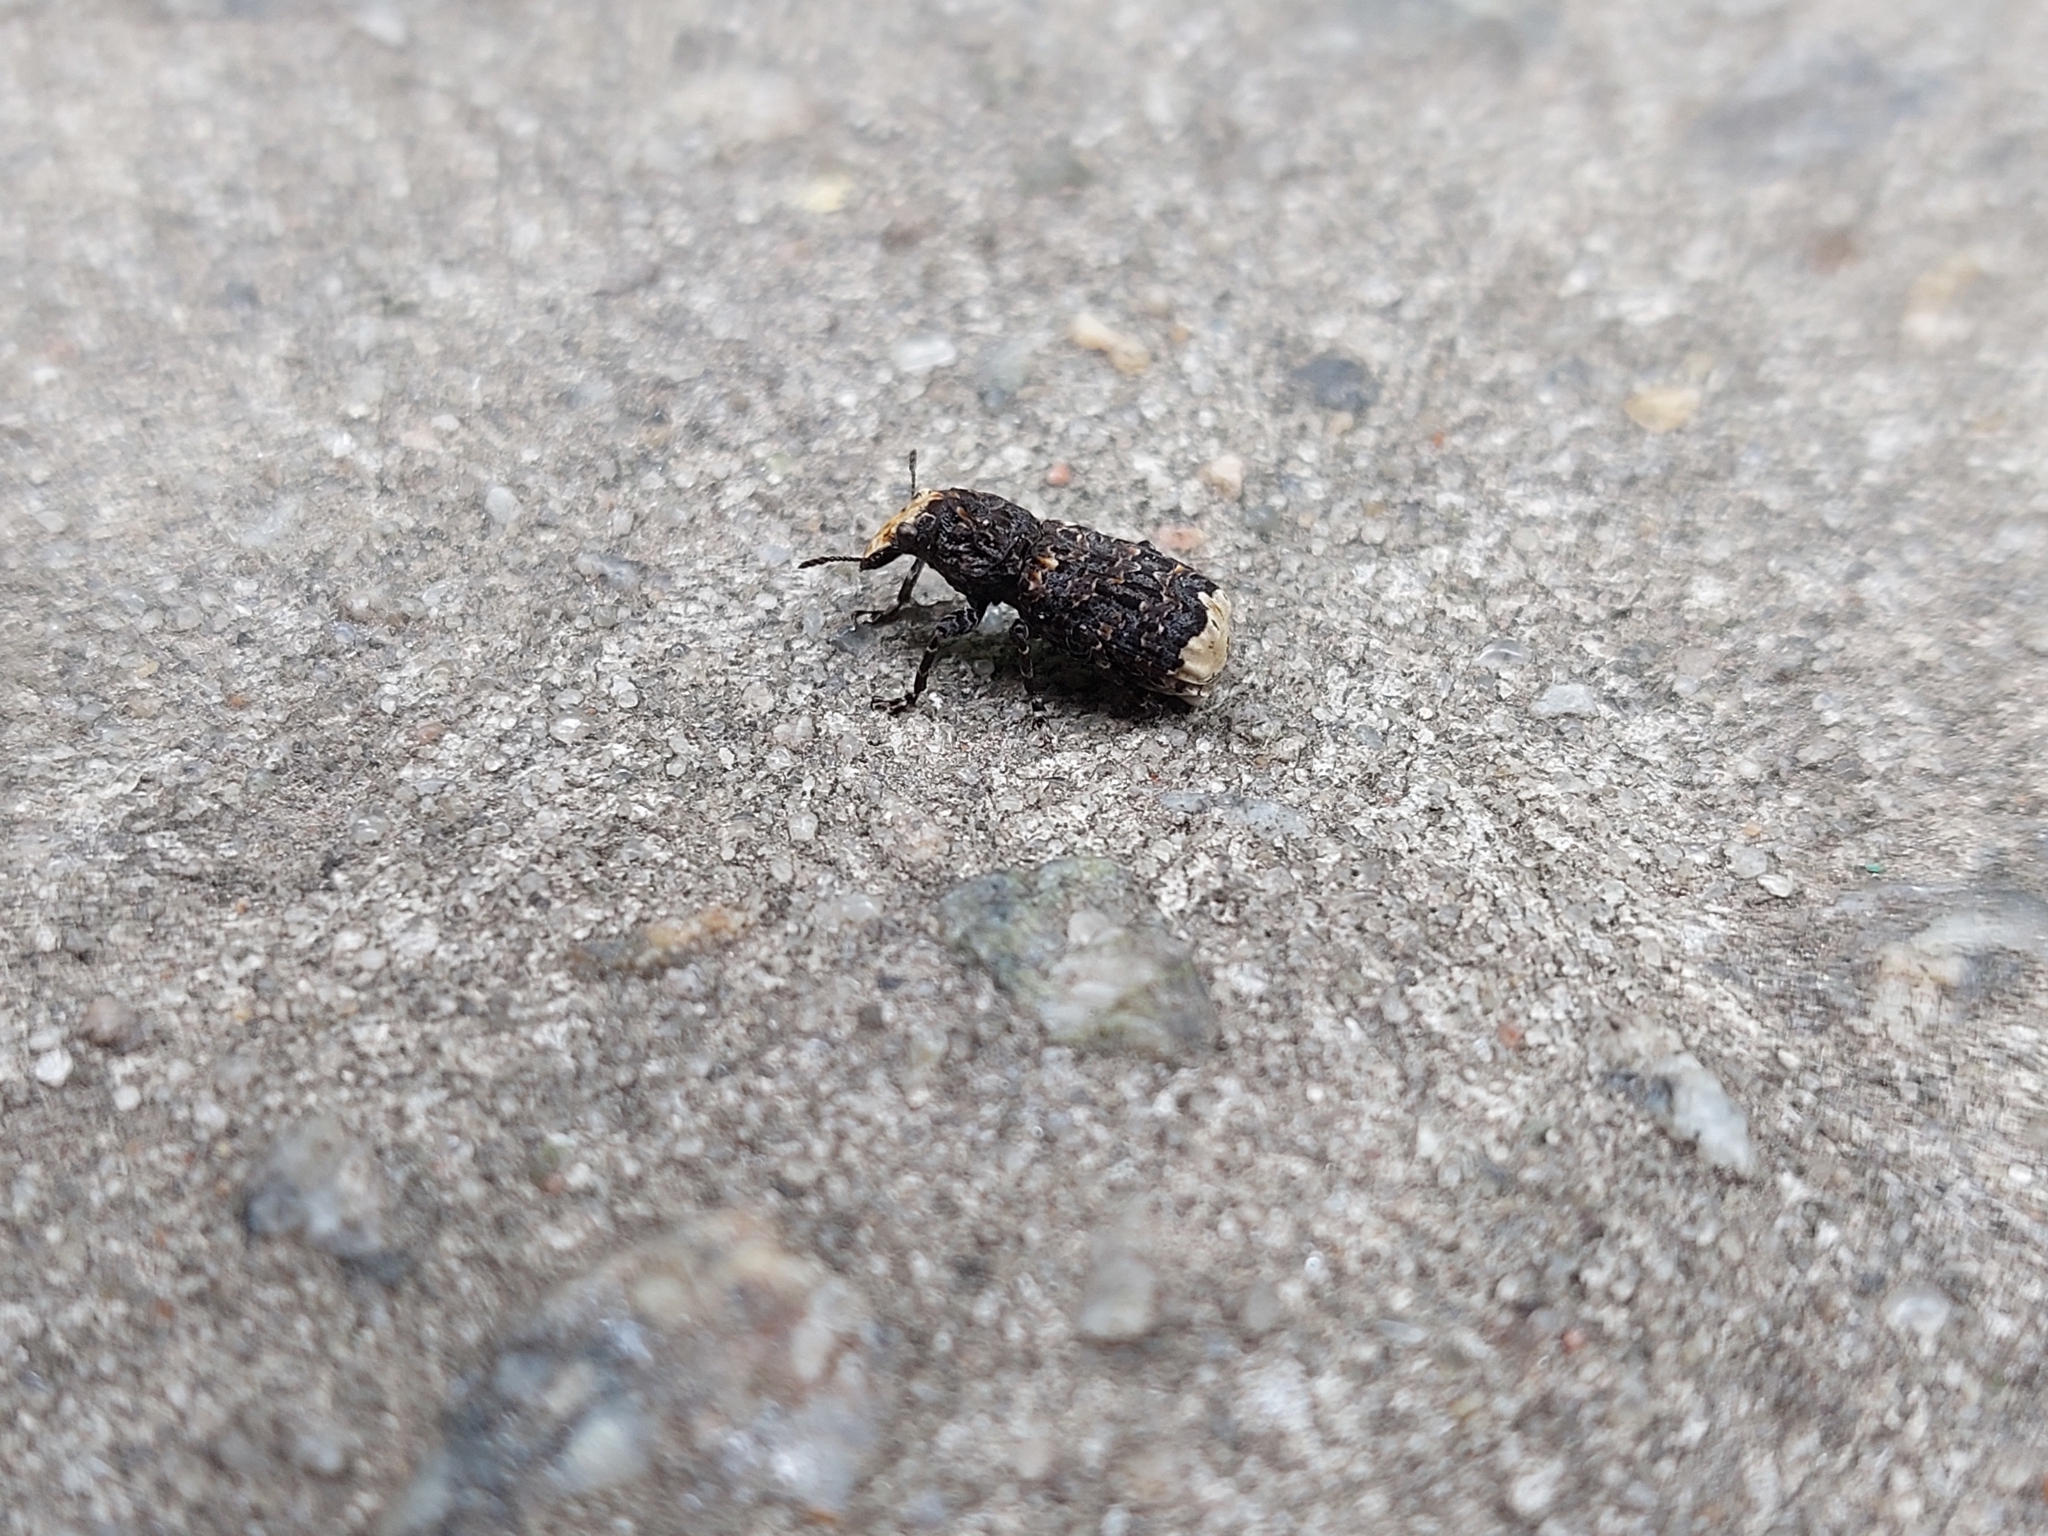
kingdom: Animalia
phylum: Arthropoda
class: Insecta
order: Coleoptera
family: Anthribidae
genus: Platyrhinus
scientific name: Platyrhinus resinosus
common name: Cramp-ball fungus weevil
